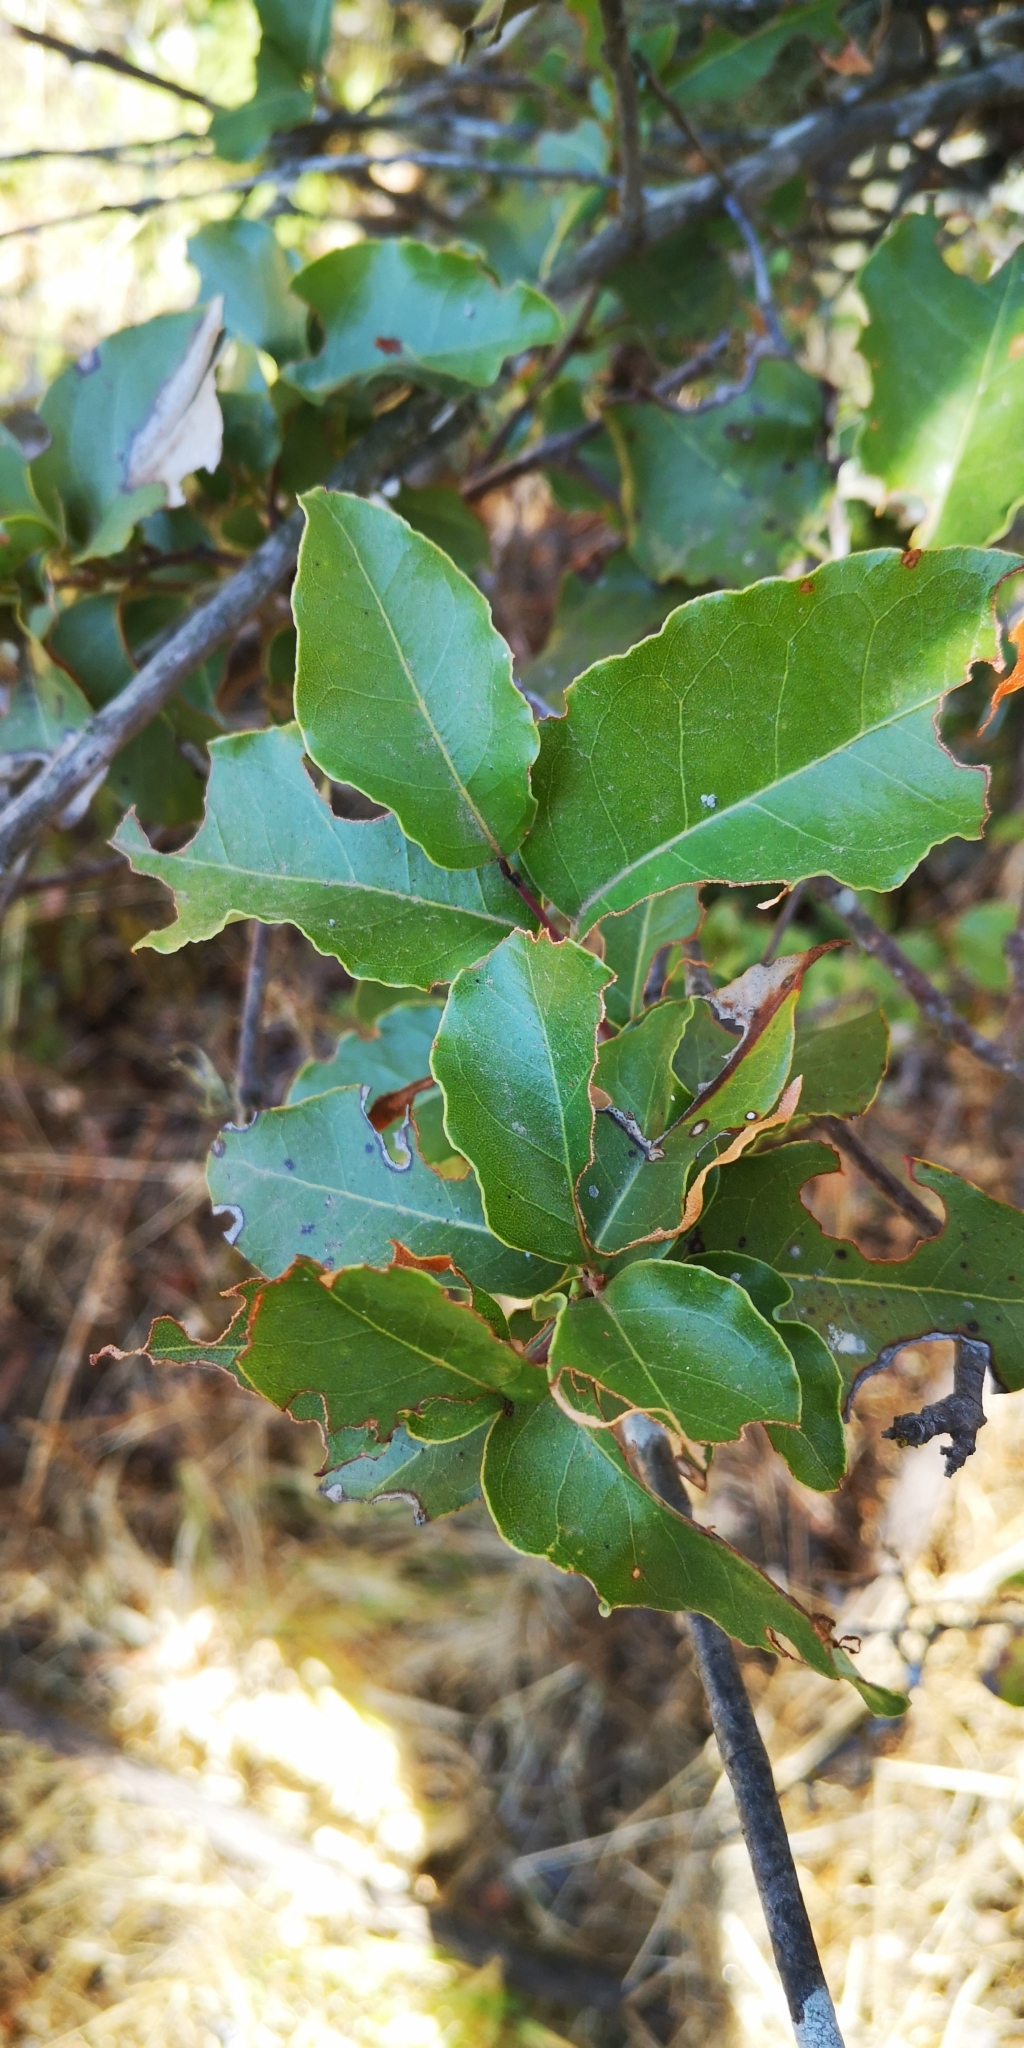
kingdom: Plantae
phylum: Tracheophyta
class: Magnoliopsida
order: Laurales
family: Lauraceae
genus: Cryptocarya
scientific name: Cryptocarya alba
